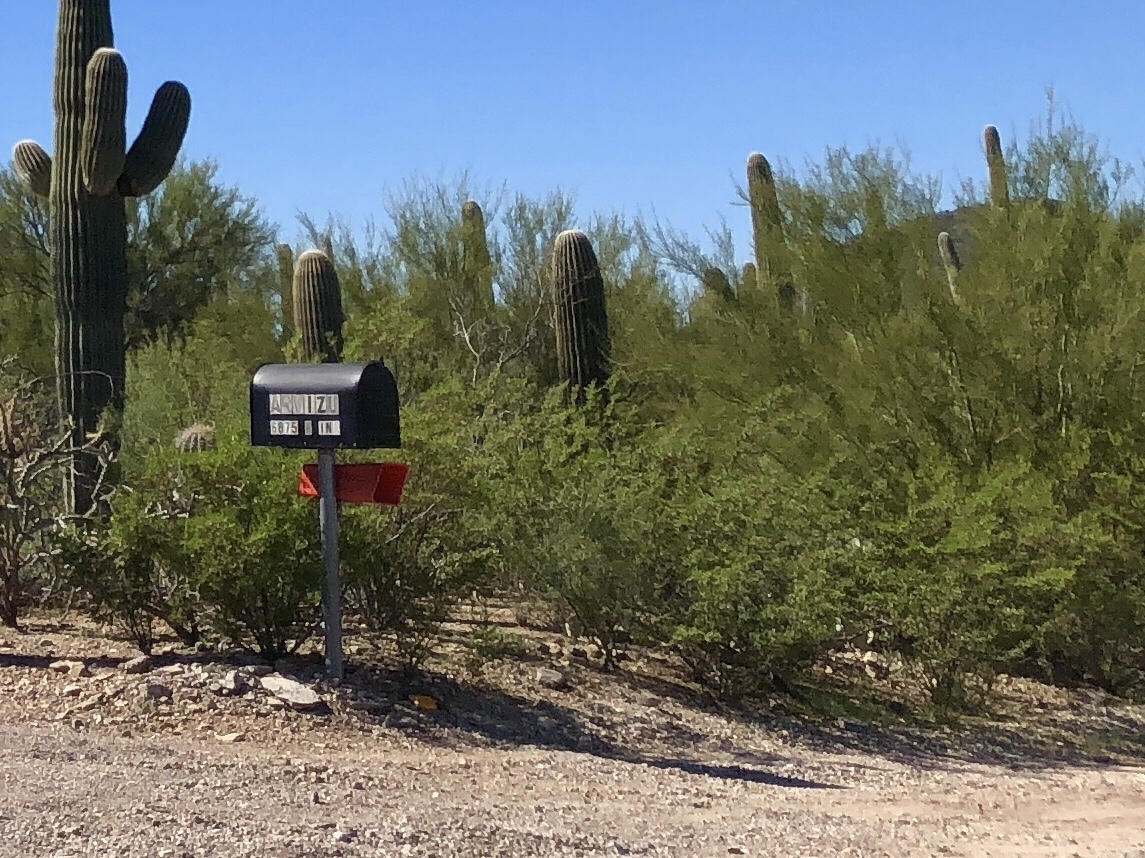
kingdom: Plantae
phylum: Tracheophyta
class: Magnoliopsida
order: Zygophyllales
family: Zygophyllaceae
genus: Larrea
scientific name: Larrea tridentata
